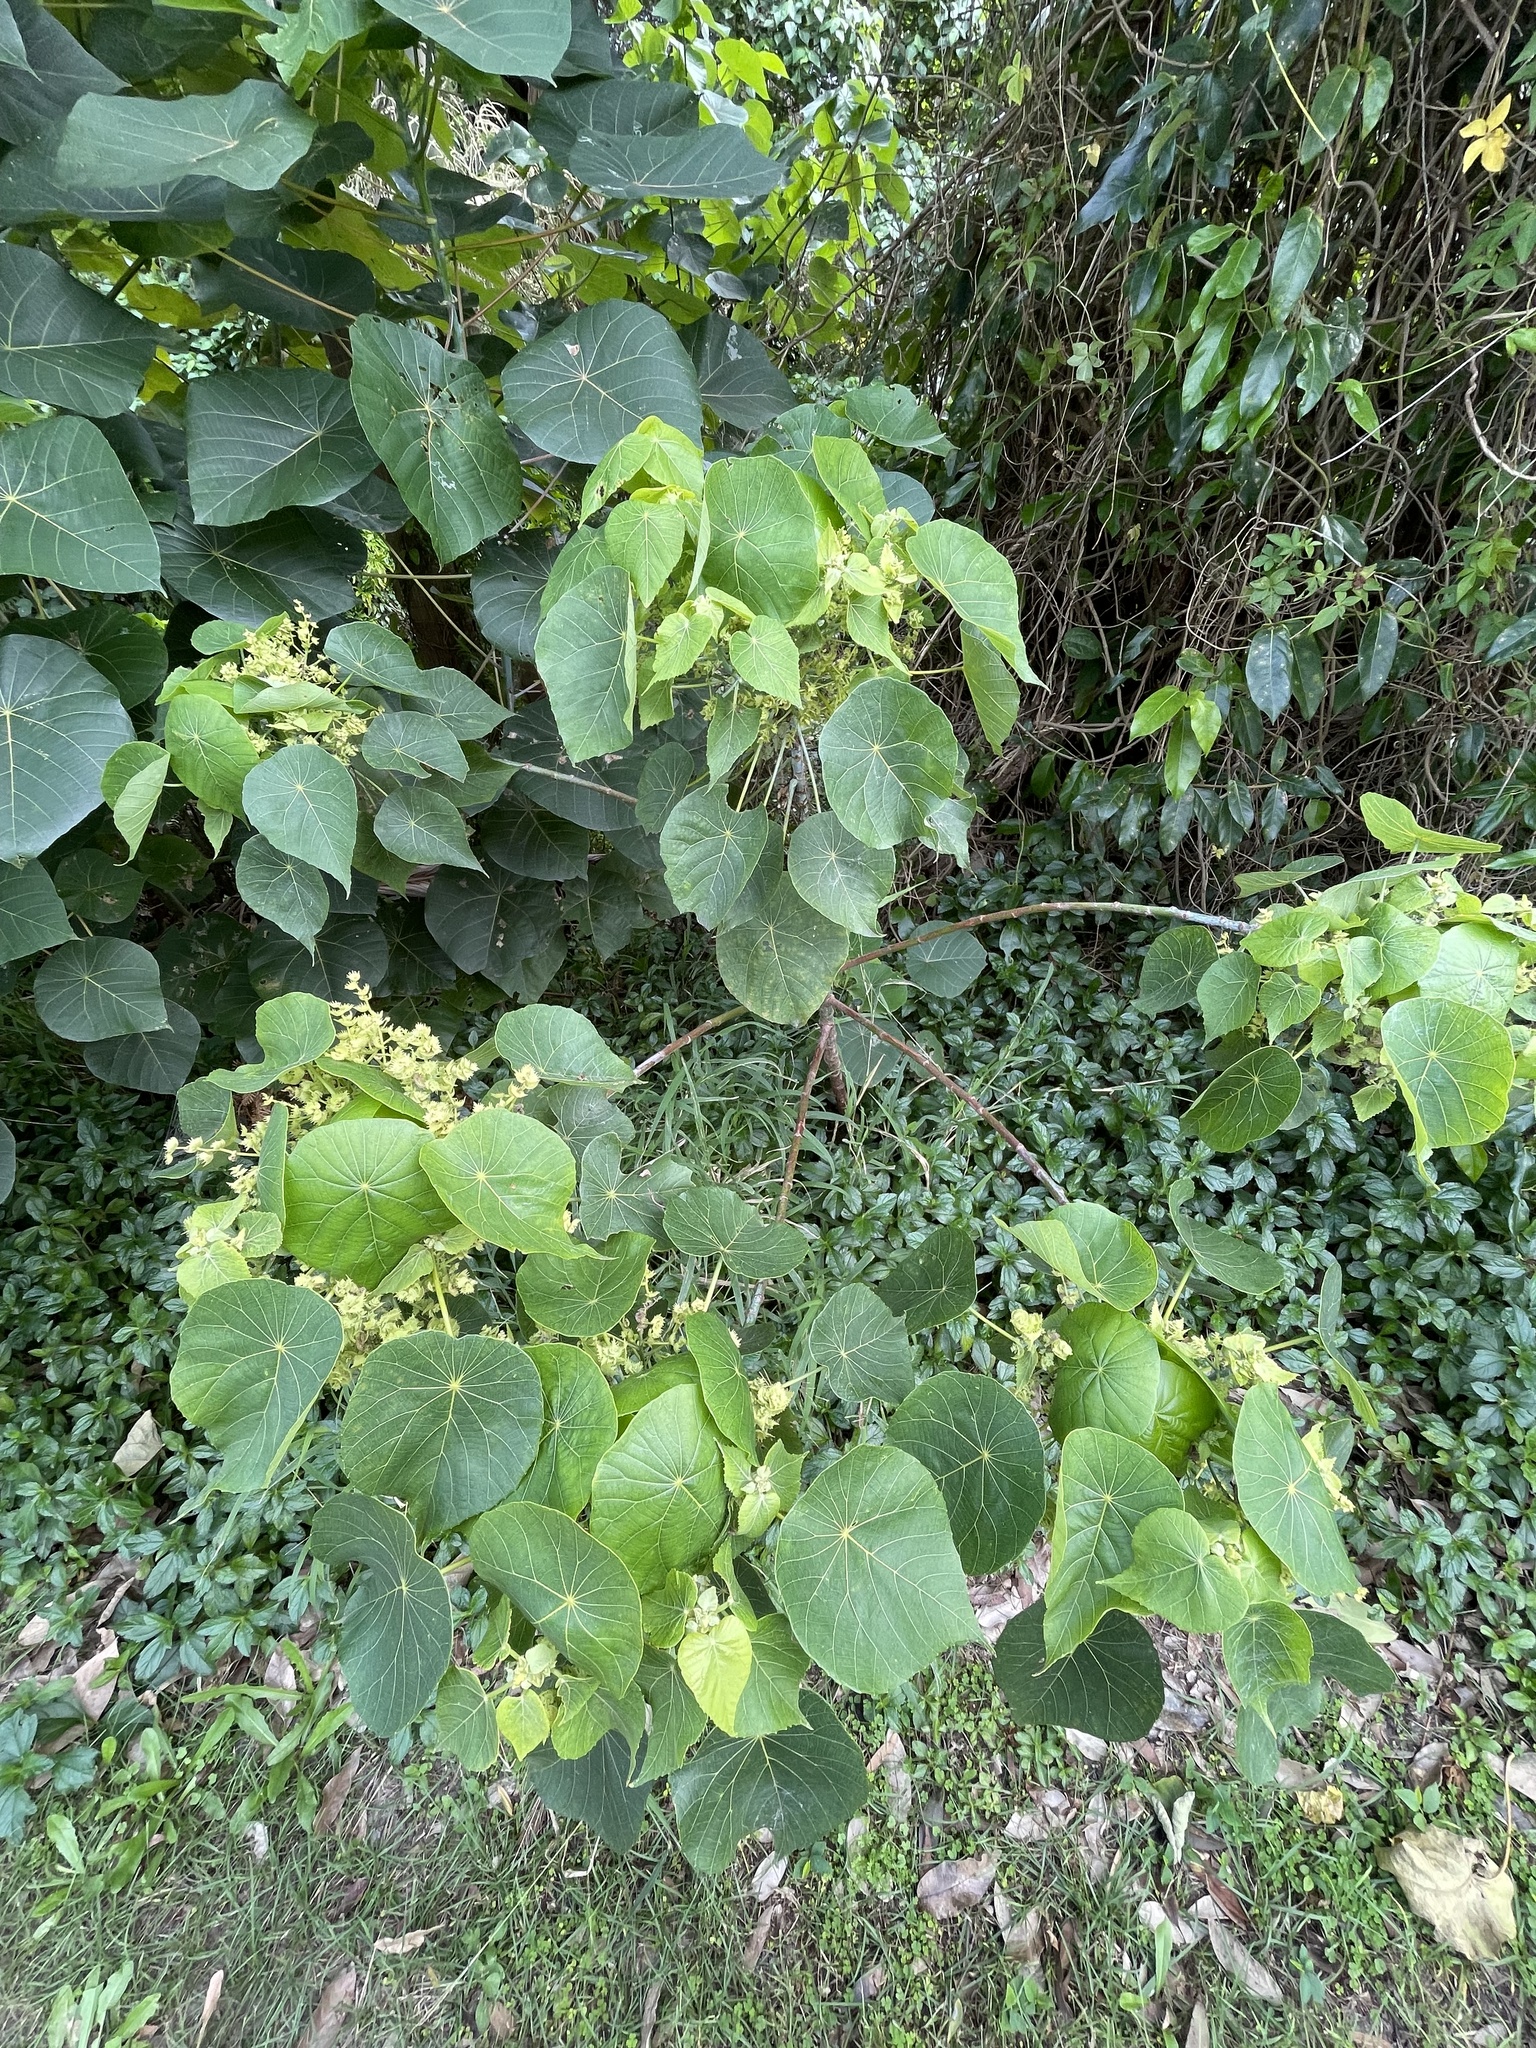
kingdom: Plantae
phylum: Tracheophyta
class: Magnoliopsida
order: Malpighiales
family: Euphorbiaceae
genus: Macaranga
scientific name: Macaranga tanarius
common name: Parasol leaf tree
